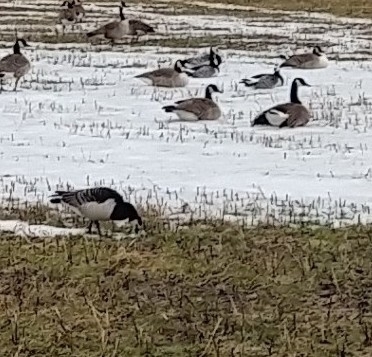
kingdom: Animalia
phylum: Chordata
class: Aves
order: Anseriformes
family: Anatidae
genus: Branta
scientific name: Branta leucopsis
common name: Barnacle goose
